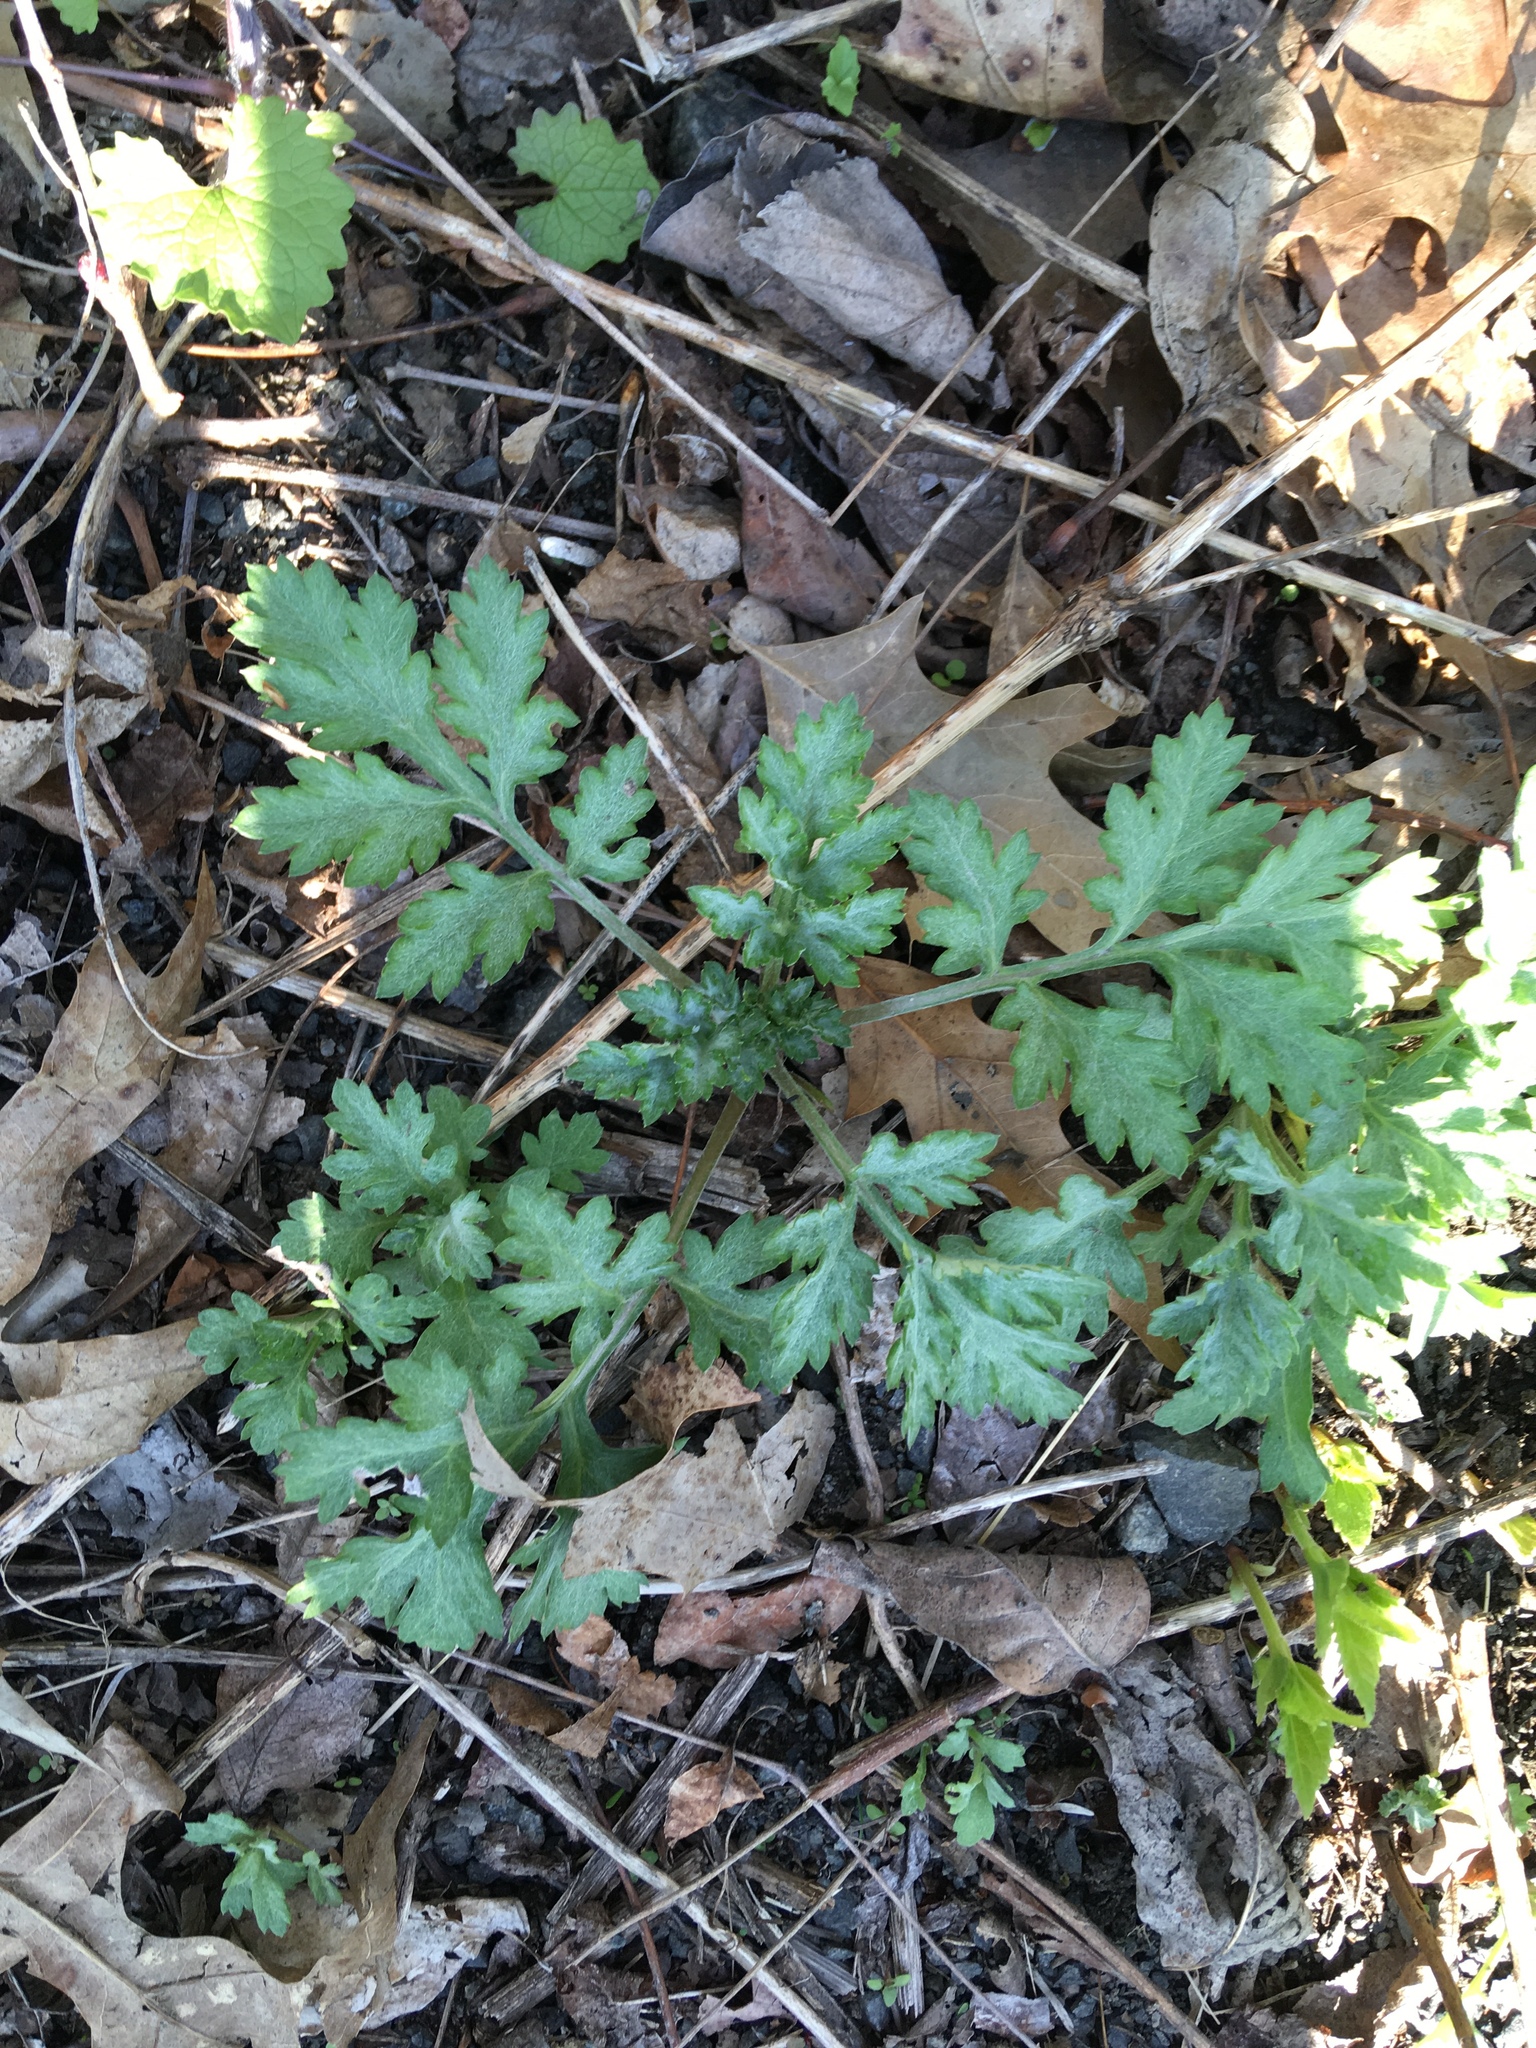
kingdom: Plantae
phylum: Tracheophyta
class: Magnoliopsida
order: Asterales
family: Asteraceae
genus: Artemisia
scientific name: Artemisia vulgaris
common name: Mugwort
